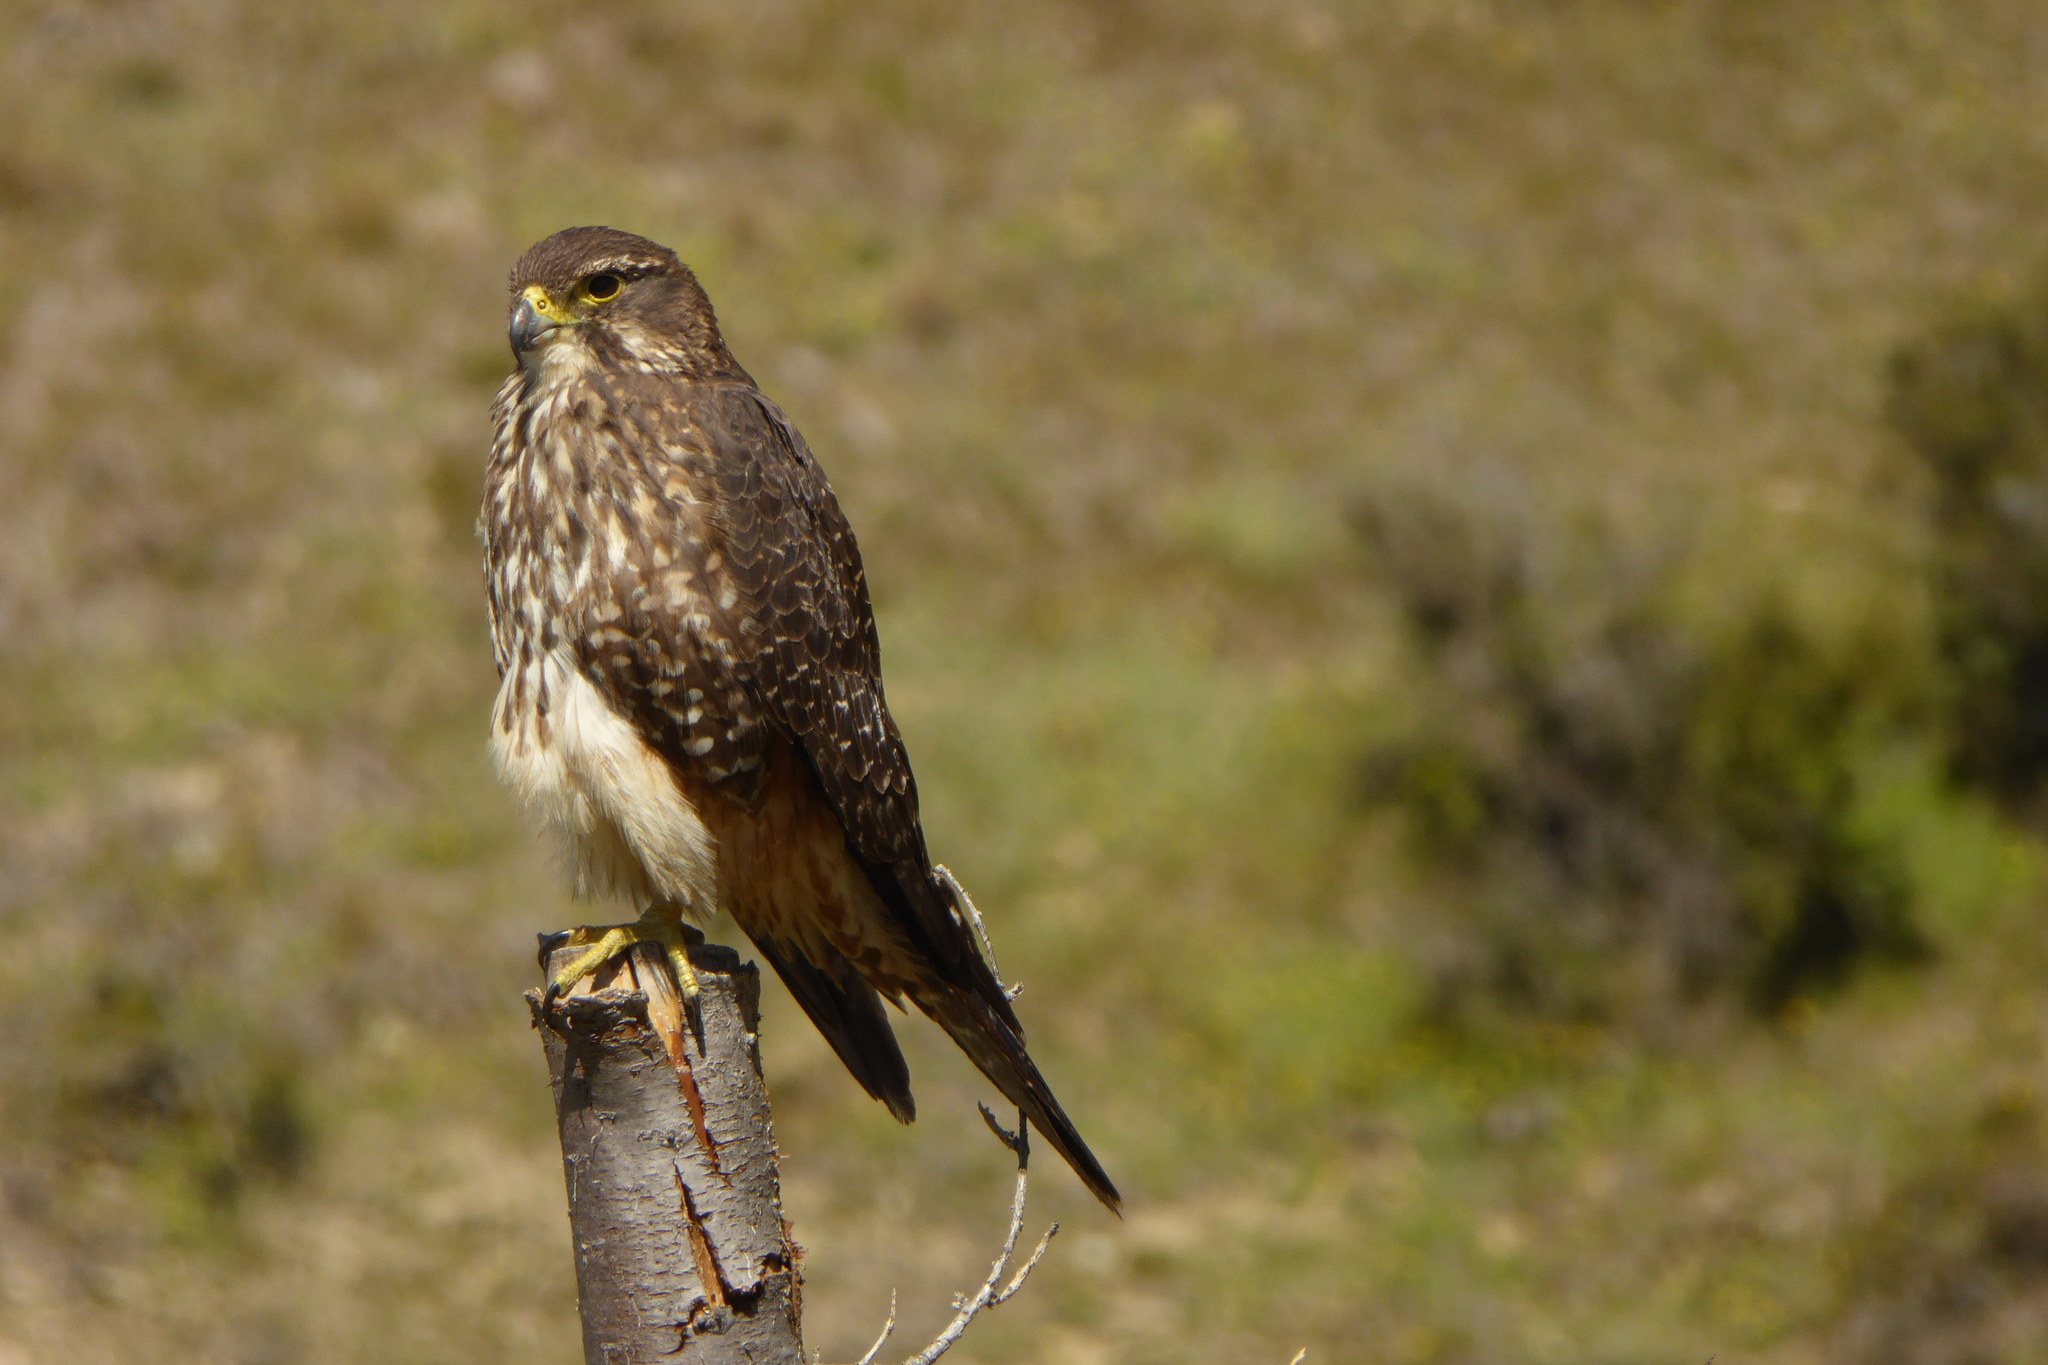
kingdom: Animalia
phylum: Chordata
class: Aves
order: Falconiformes
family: Falconidae
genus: Falco
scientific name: Falco novaeseelandiae
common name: New zealand falcon
